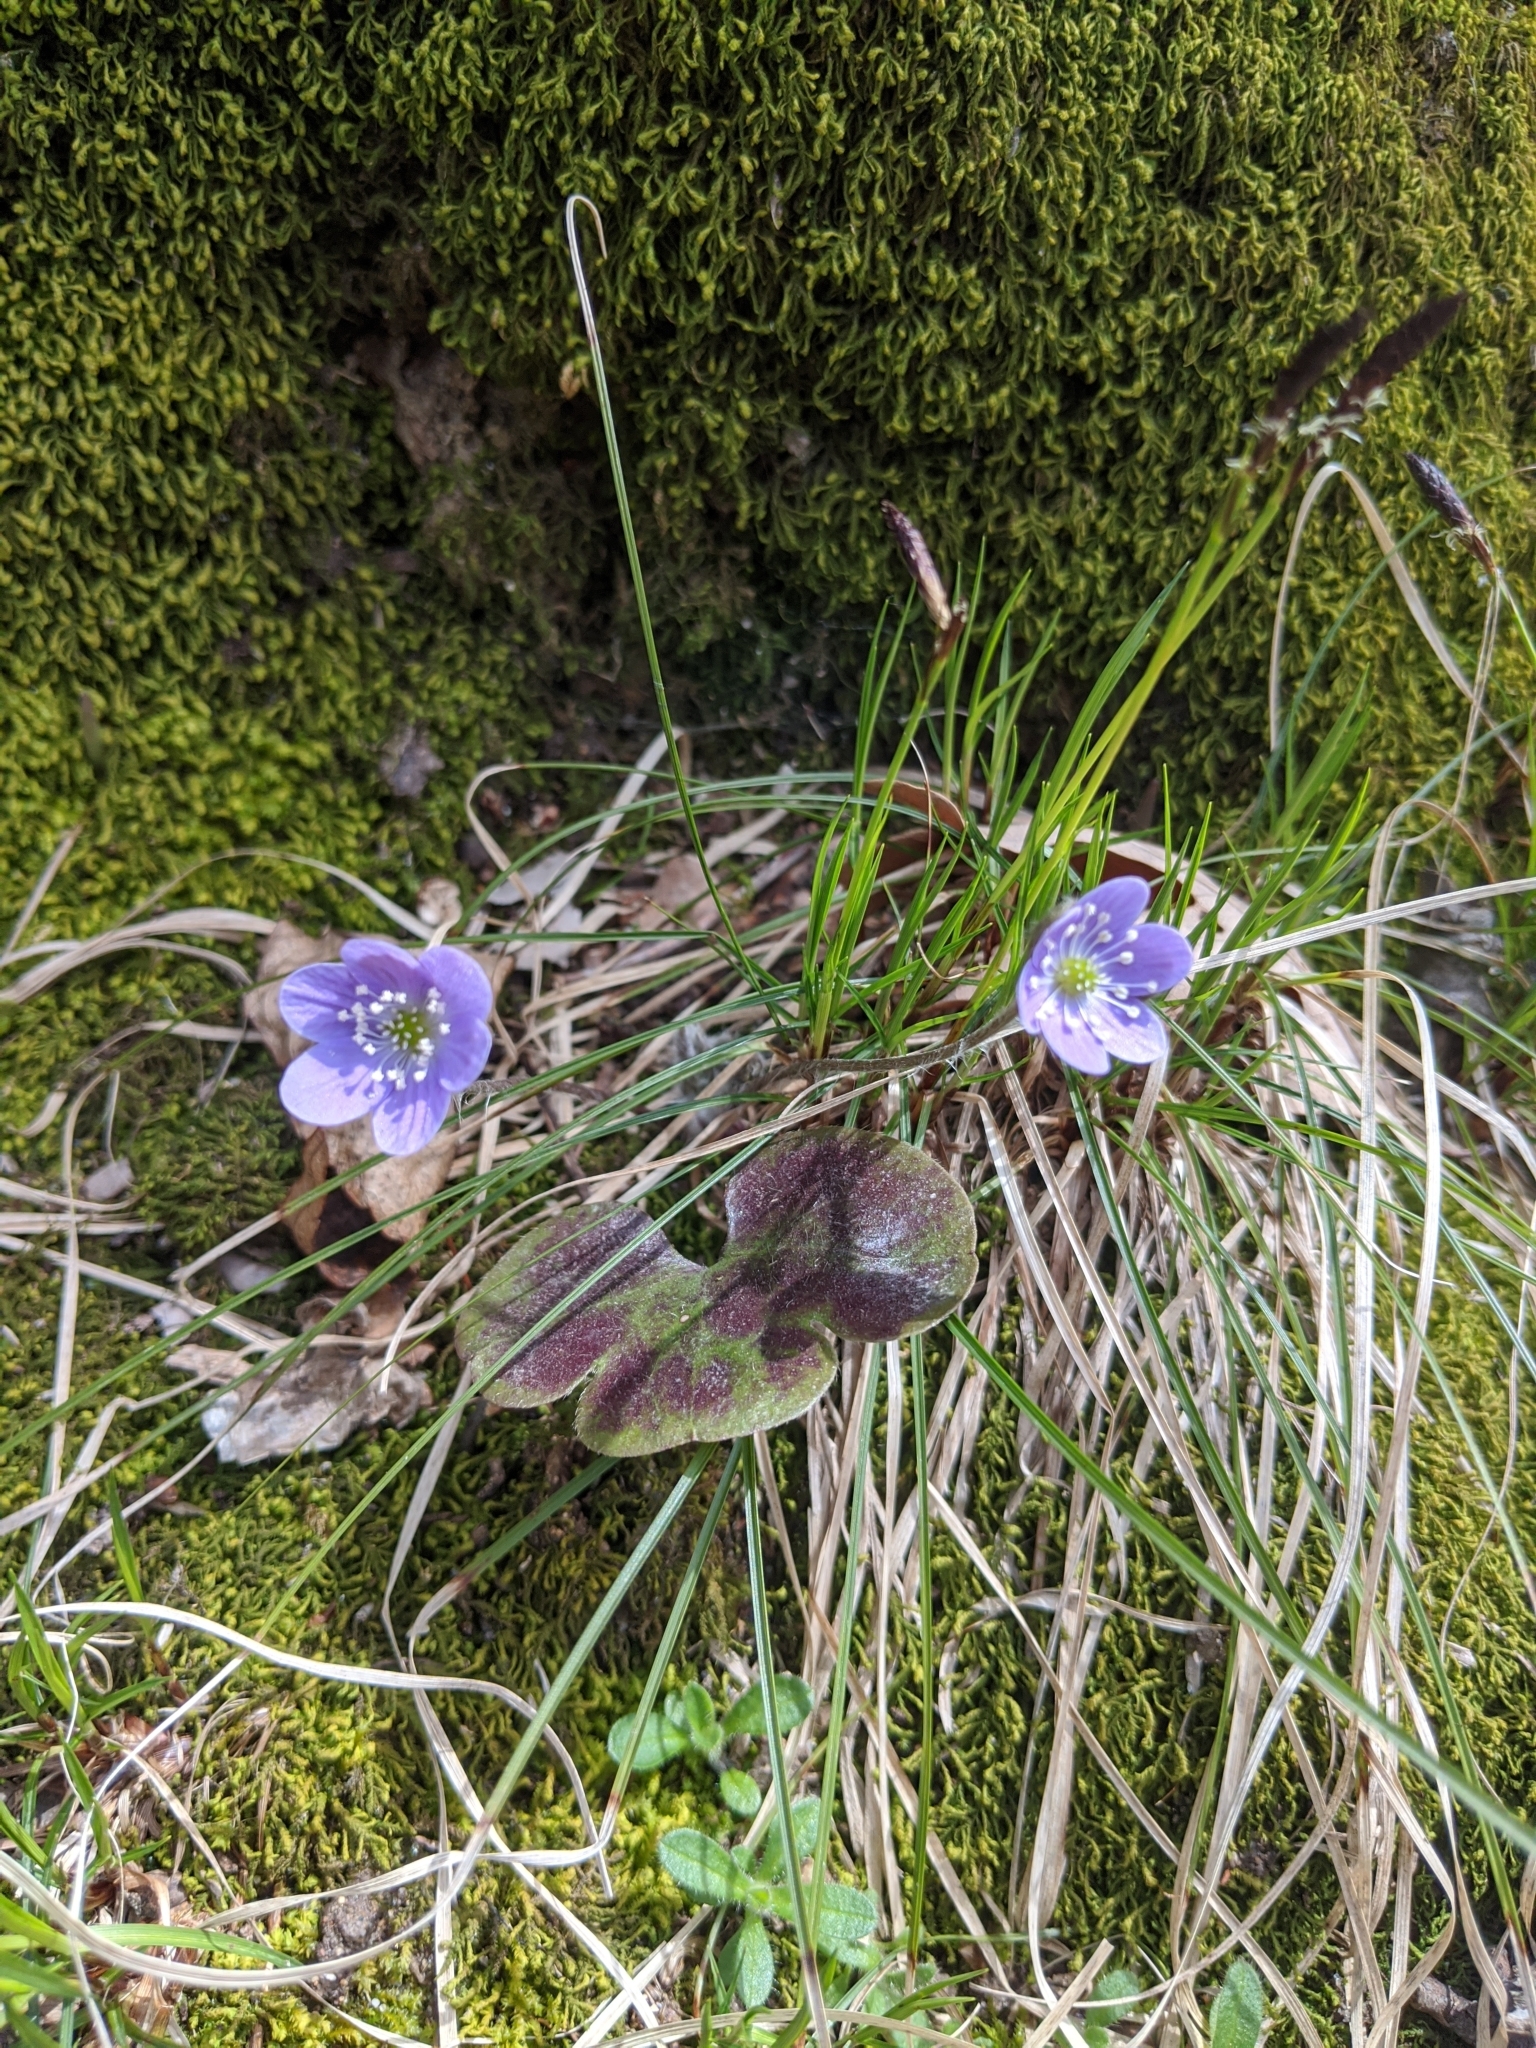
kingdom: Plantae
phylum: Tracheophyta
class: Magnoliopsida
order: Ranunculales
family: Ranunculaceae
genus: Hepatica
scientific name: Hepatica americana
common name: American hepatica
